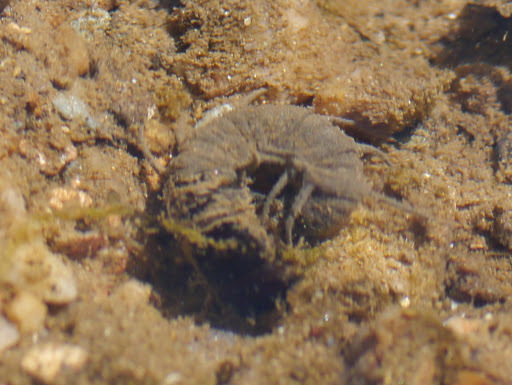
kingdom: Animalia
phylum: Arthropoda
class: Insecta
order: Megaloptera
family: Corydalidae
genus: Nigronia
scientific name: Nigronia serricornis
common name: Serrate dark fishfly
